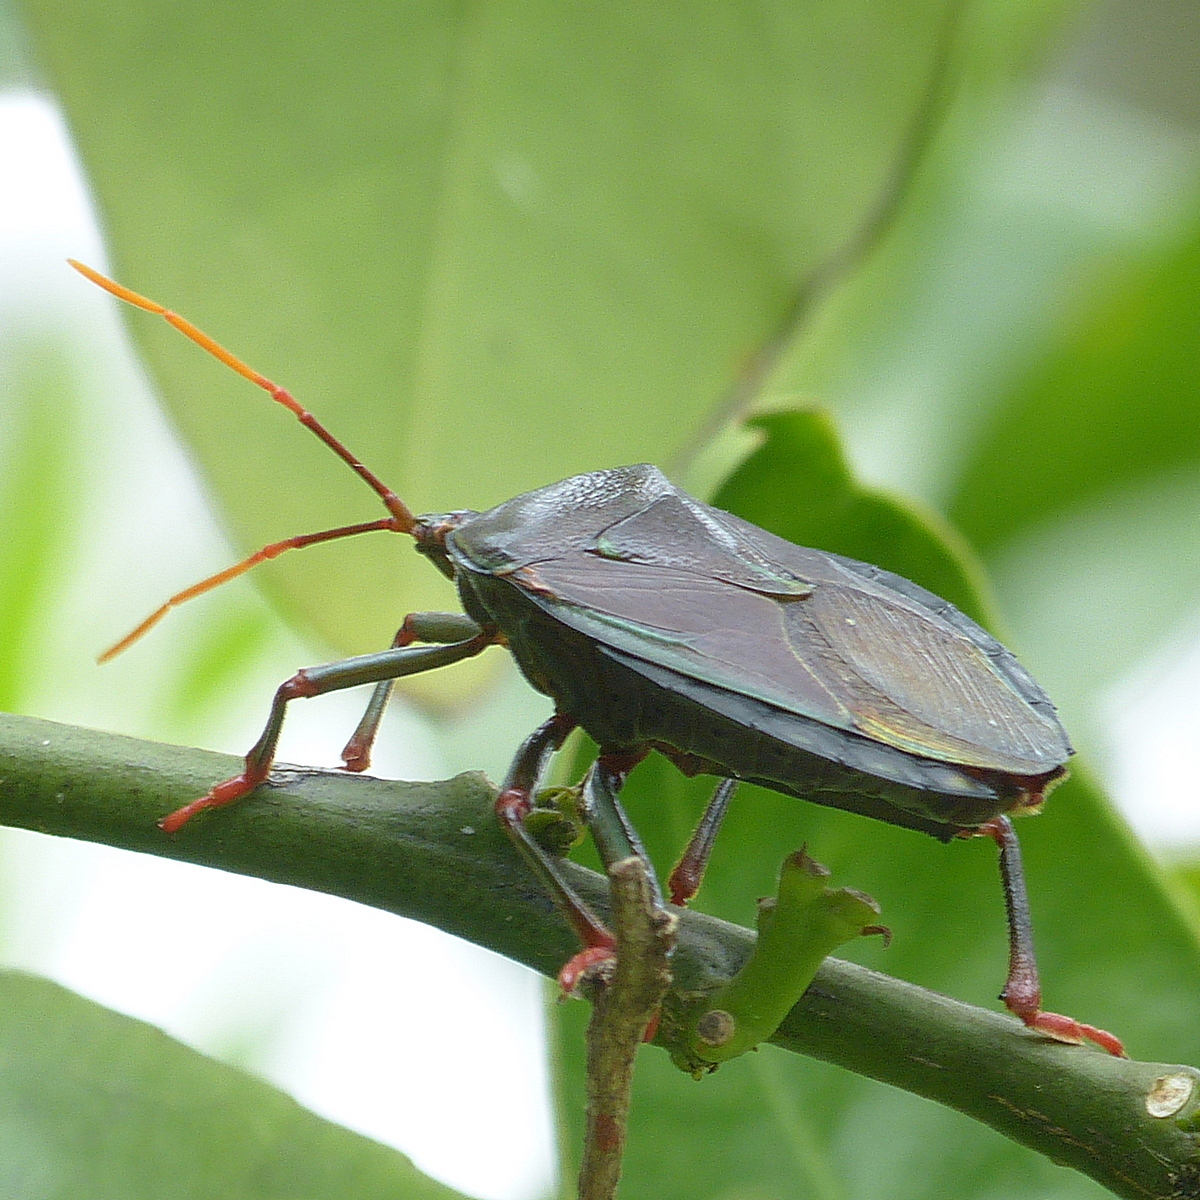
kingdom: Animalia
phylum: Arthropoda
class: Insecta
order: Hemiptera
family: Tessaratomidae
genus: Musgraveia
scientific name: Musgraveia sulciventris
